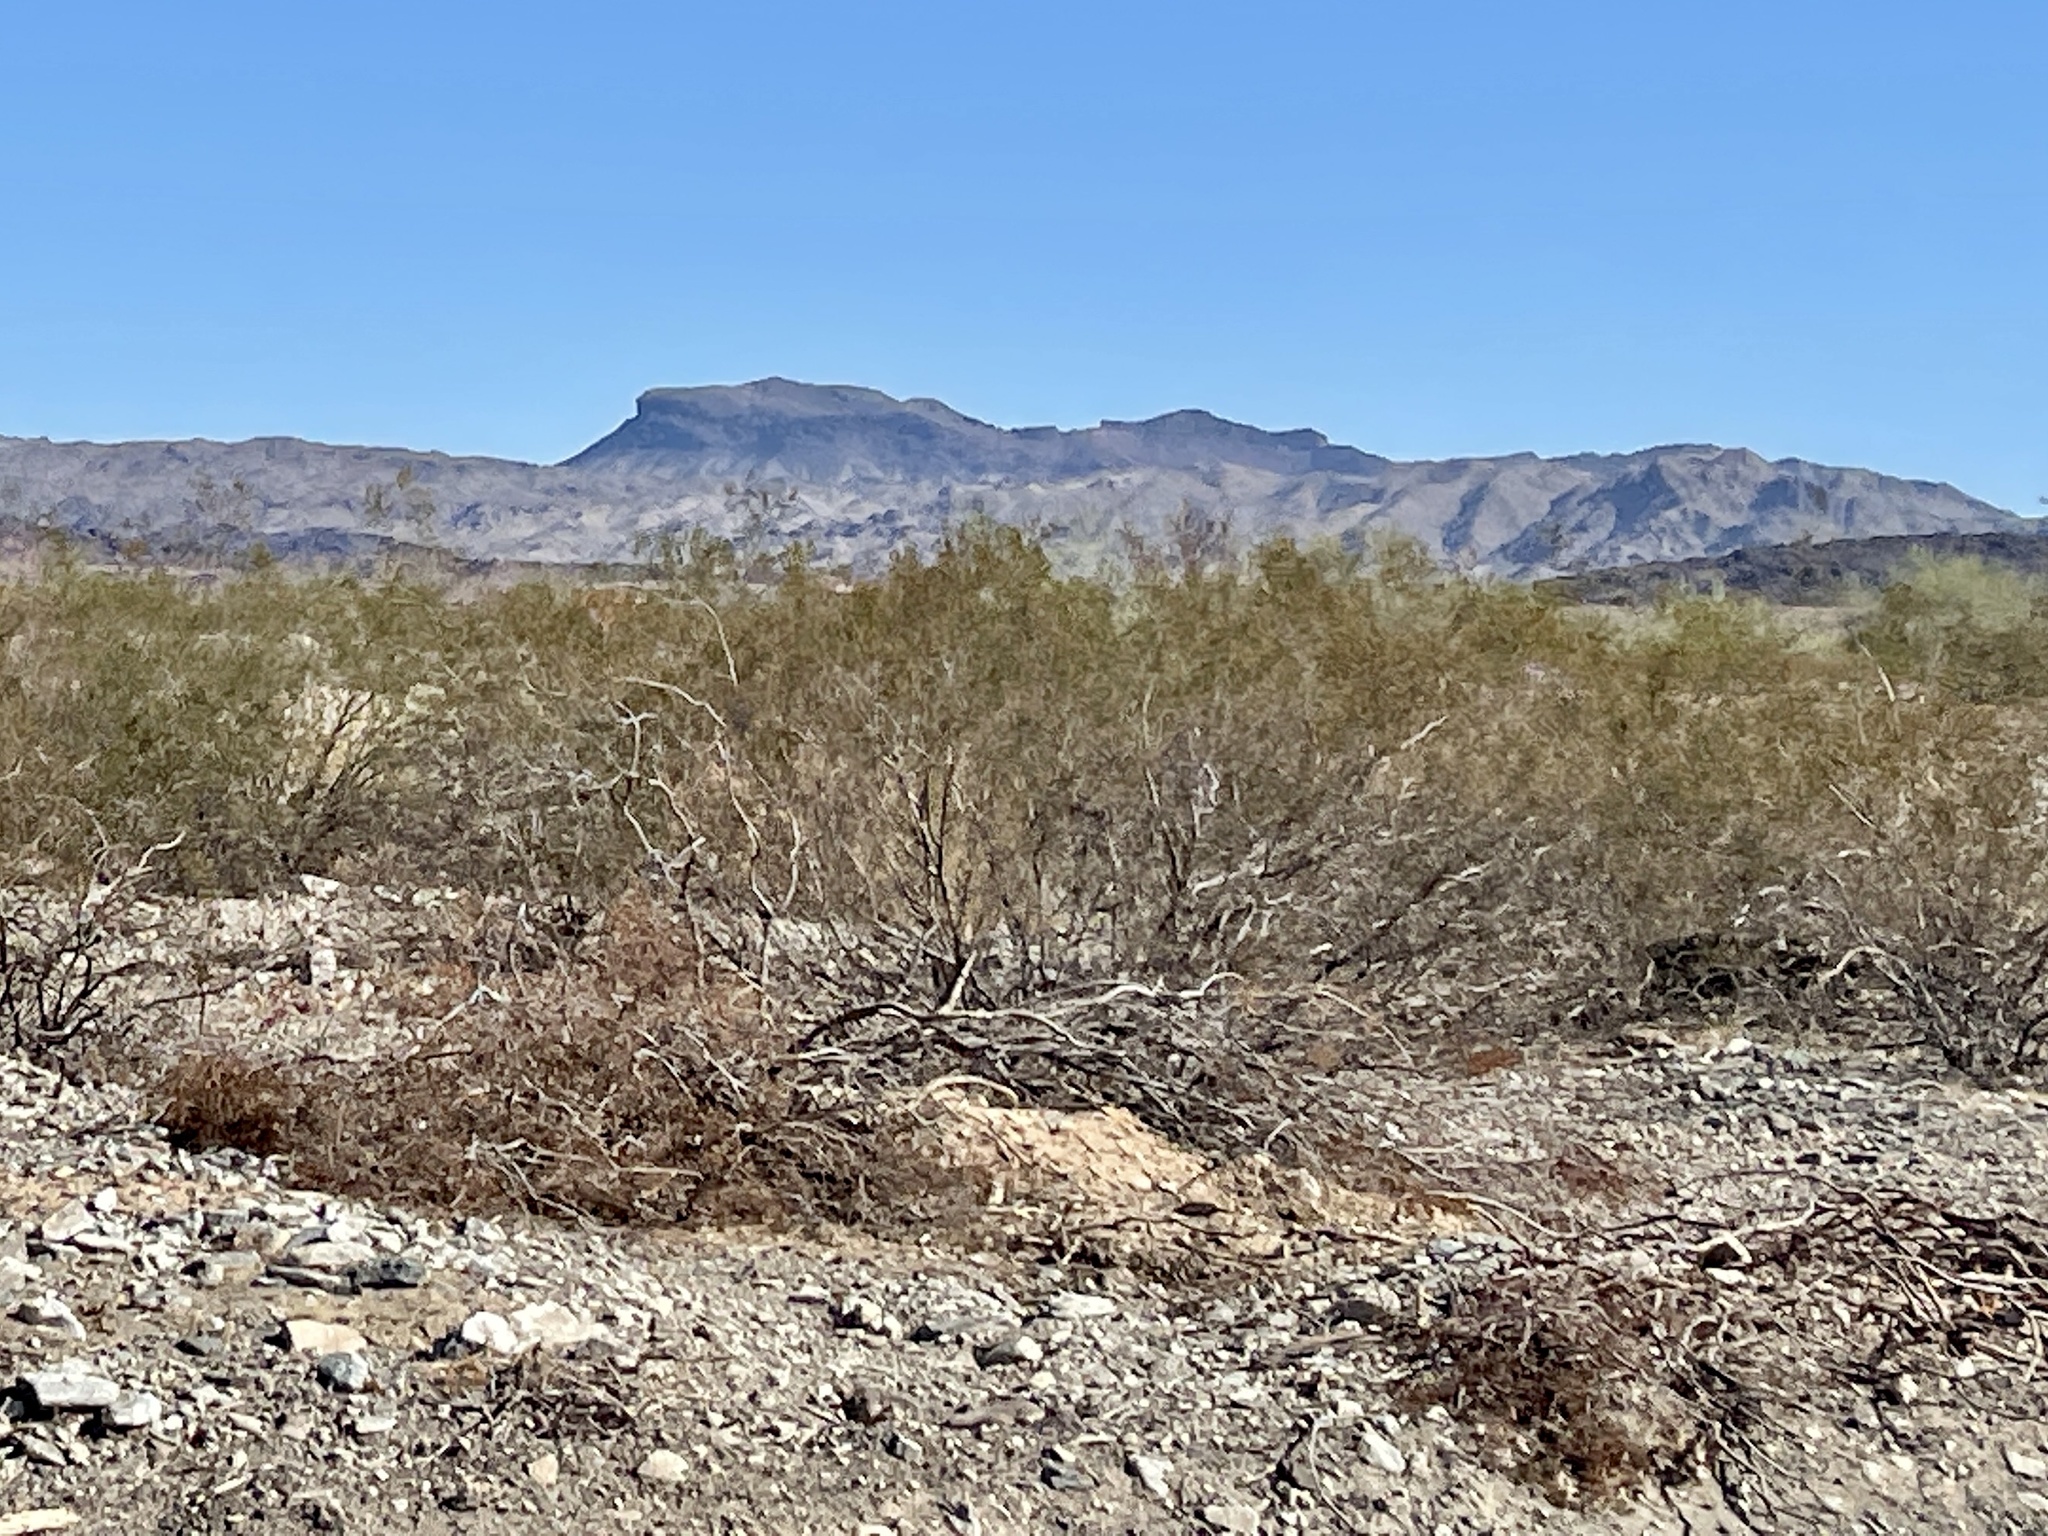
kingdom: Plantae
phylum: Tracheophyta
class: Magnoliopsida
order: Zygophyllales
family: Zygophyllaceae
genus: Larrea
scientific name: Larrea tridentata
